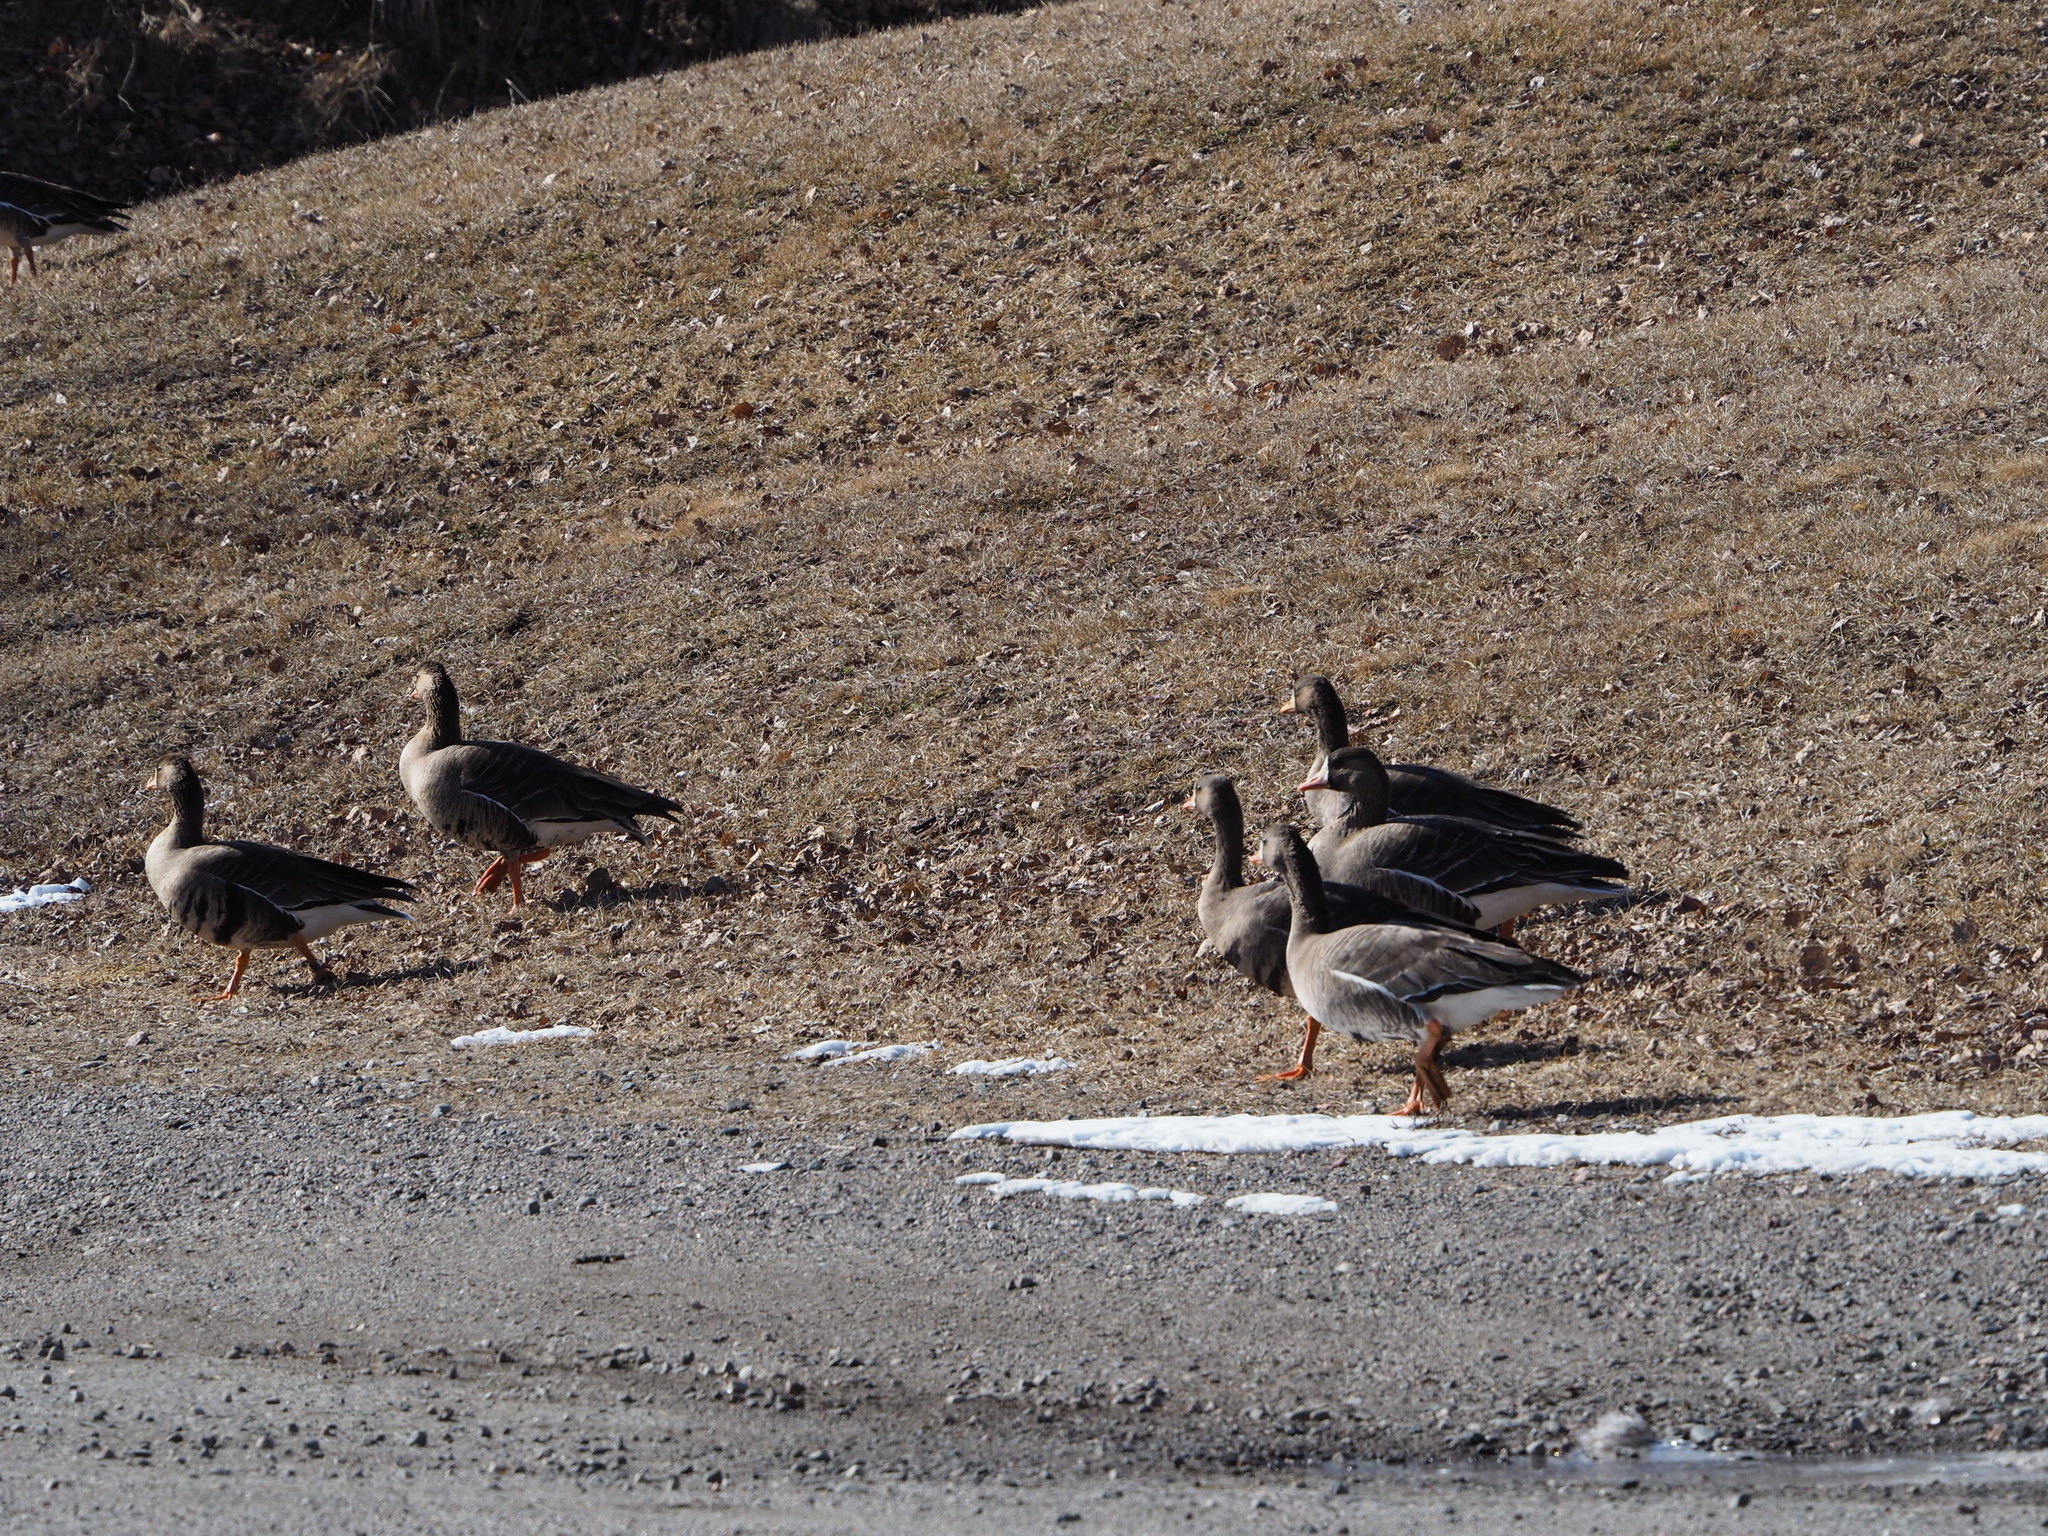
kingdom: Animalia
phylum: Chordata
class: Aves
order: Anseriformes
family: Anatidae
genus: Anser
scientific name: Anser albifrons
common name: Greater white-fronted goose
